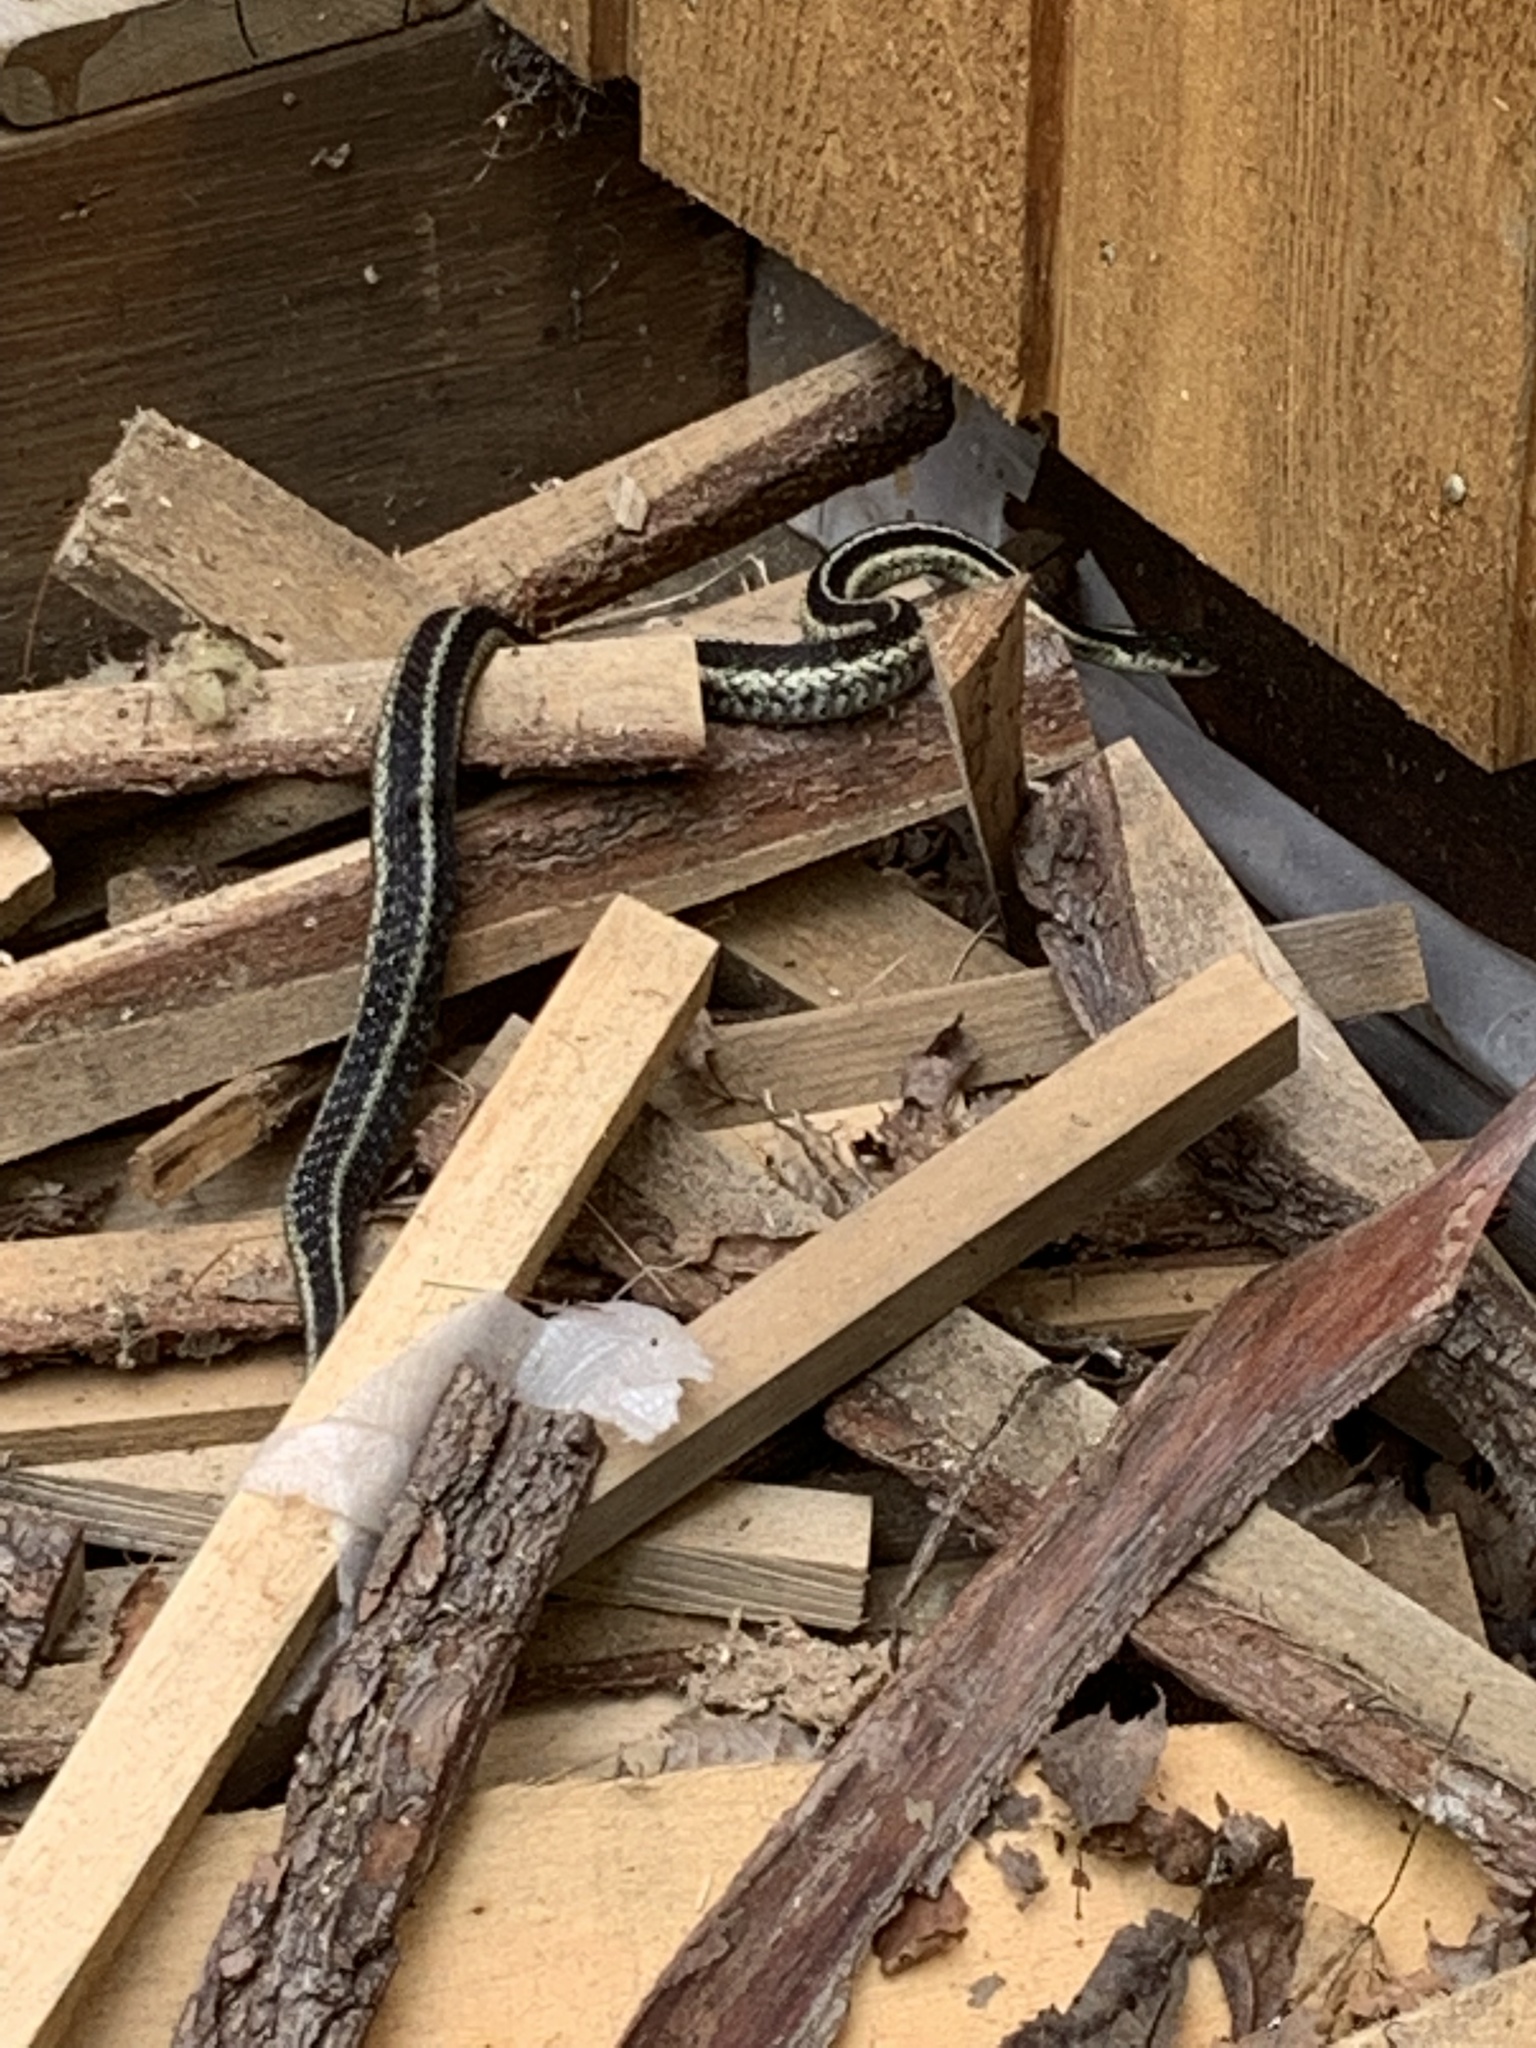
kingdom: Animalia
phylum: Chordata
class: Squamata
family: Colubridae
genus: Thamnophis
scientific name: Thamnophis sirtalis
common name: Common garter snake
